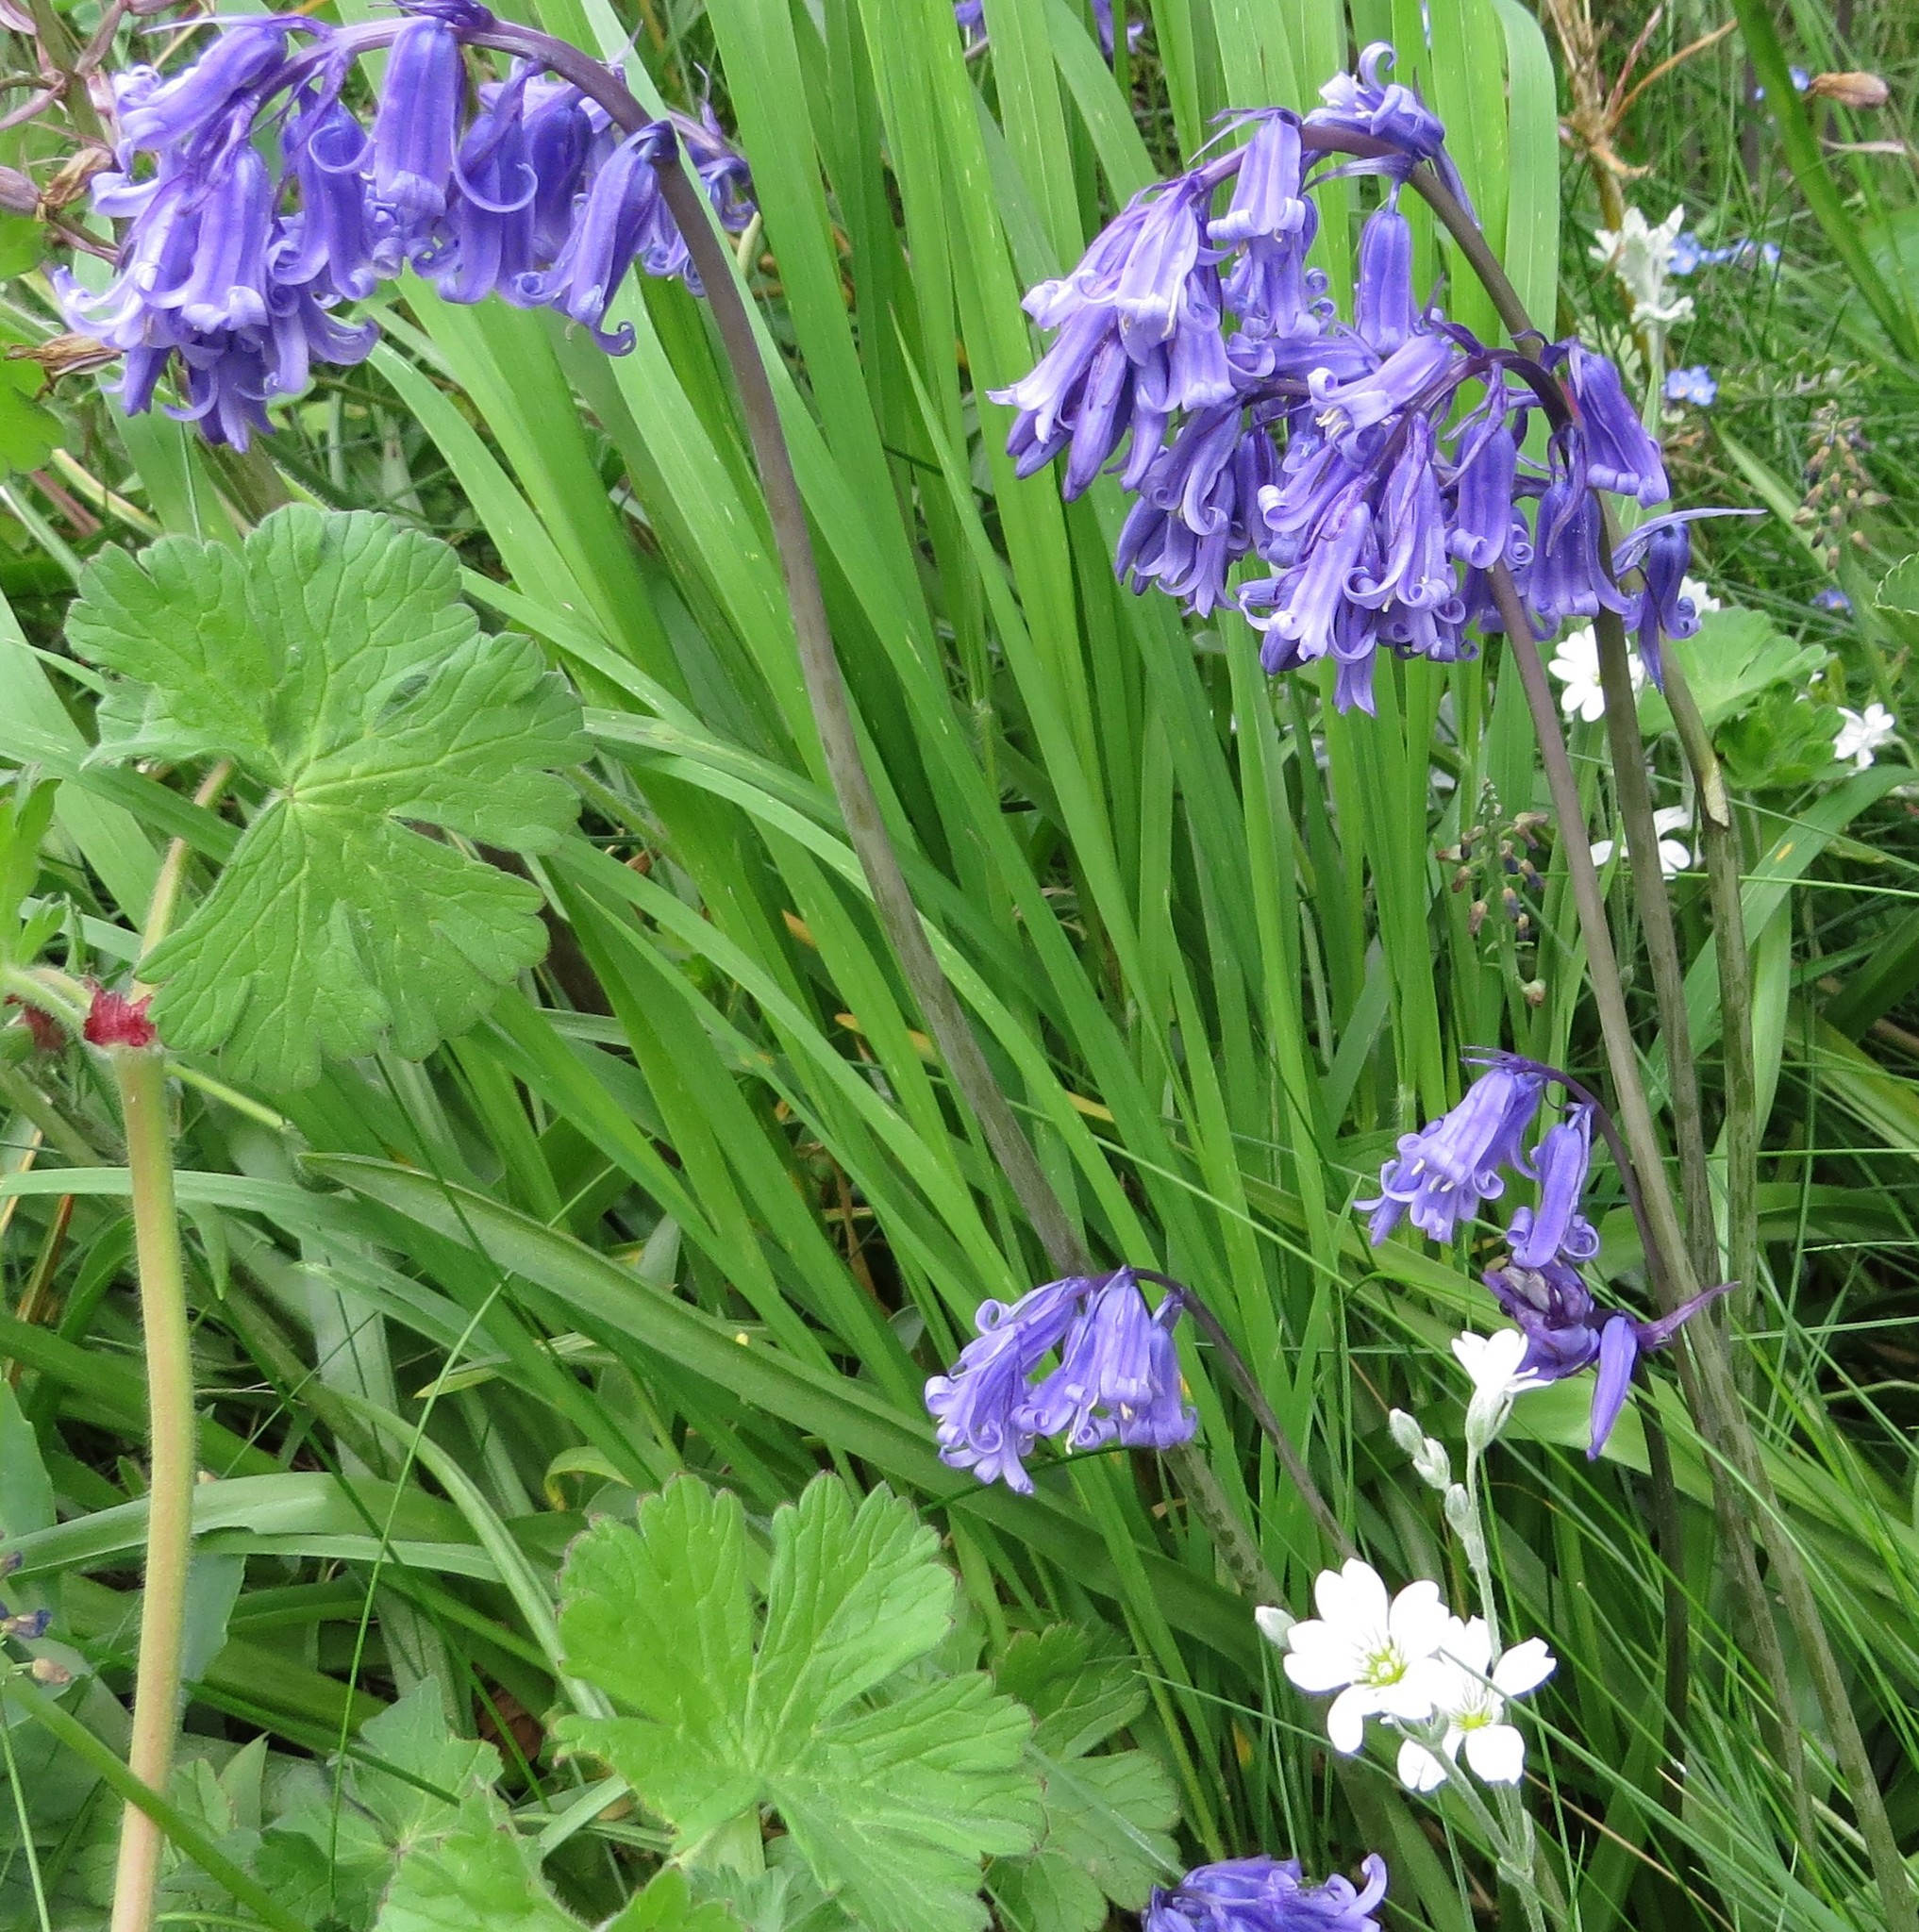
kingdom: Plantae
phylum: Tracheophyta
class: Liliopsida
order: Asparagales
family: Asparagaceae
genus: Hyacinthoides
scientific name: Hyacinthoides non-scripta
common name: Bluebell
